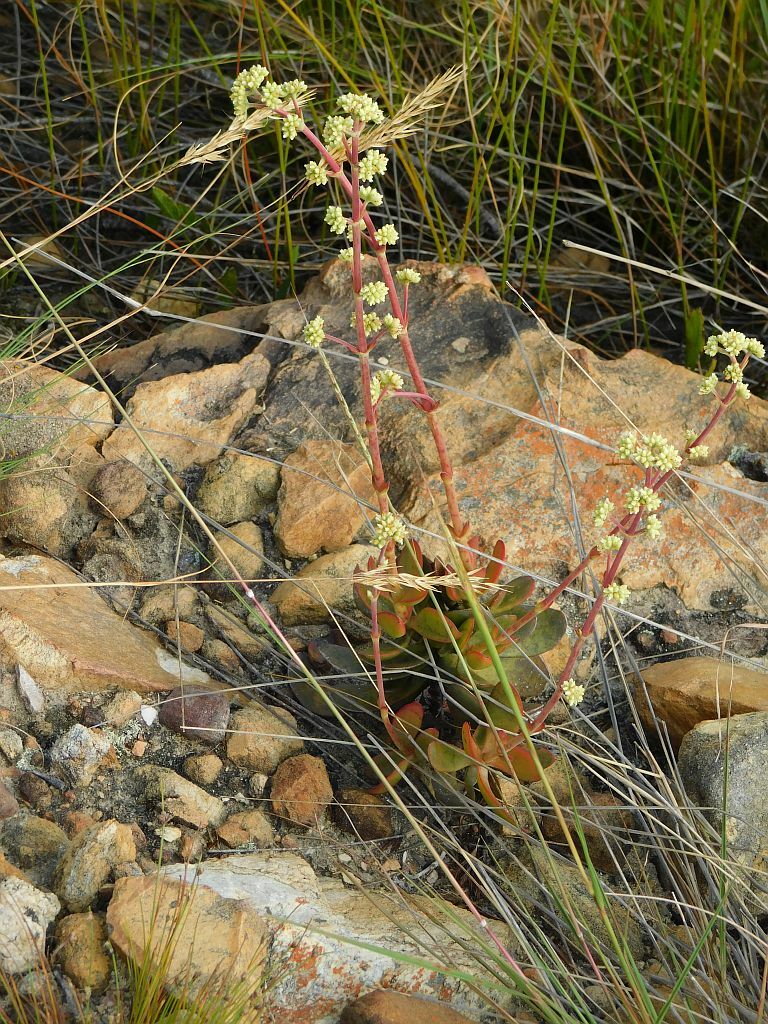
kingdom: Plantae
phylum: Tracheophyta
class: Magnoliopsida
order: Saxifragales
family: Crassulaceae
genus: Crassula
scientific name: Crassula atropurpurea
